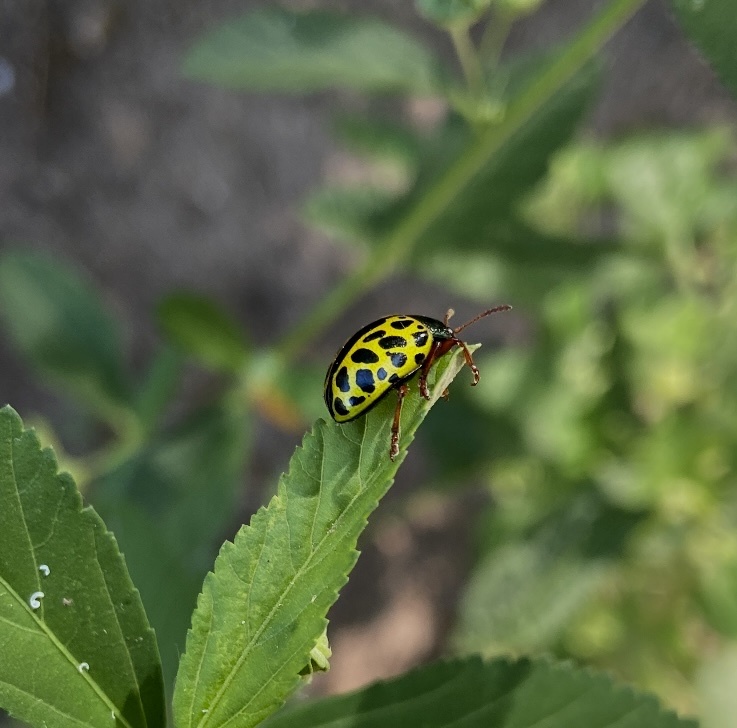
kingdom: Animalia
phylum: Arthropoda
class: Insecta
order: Coleoptera
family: Chrysomelidae
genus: Calligrapha
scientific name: Calligrapha polyspila
